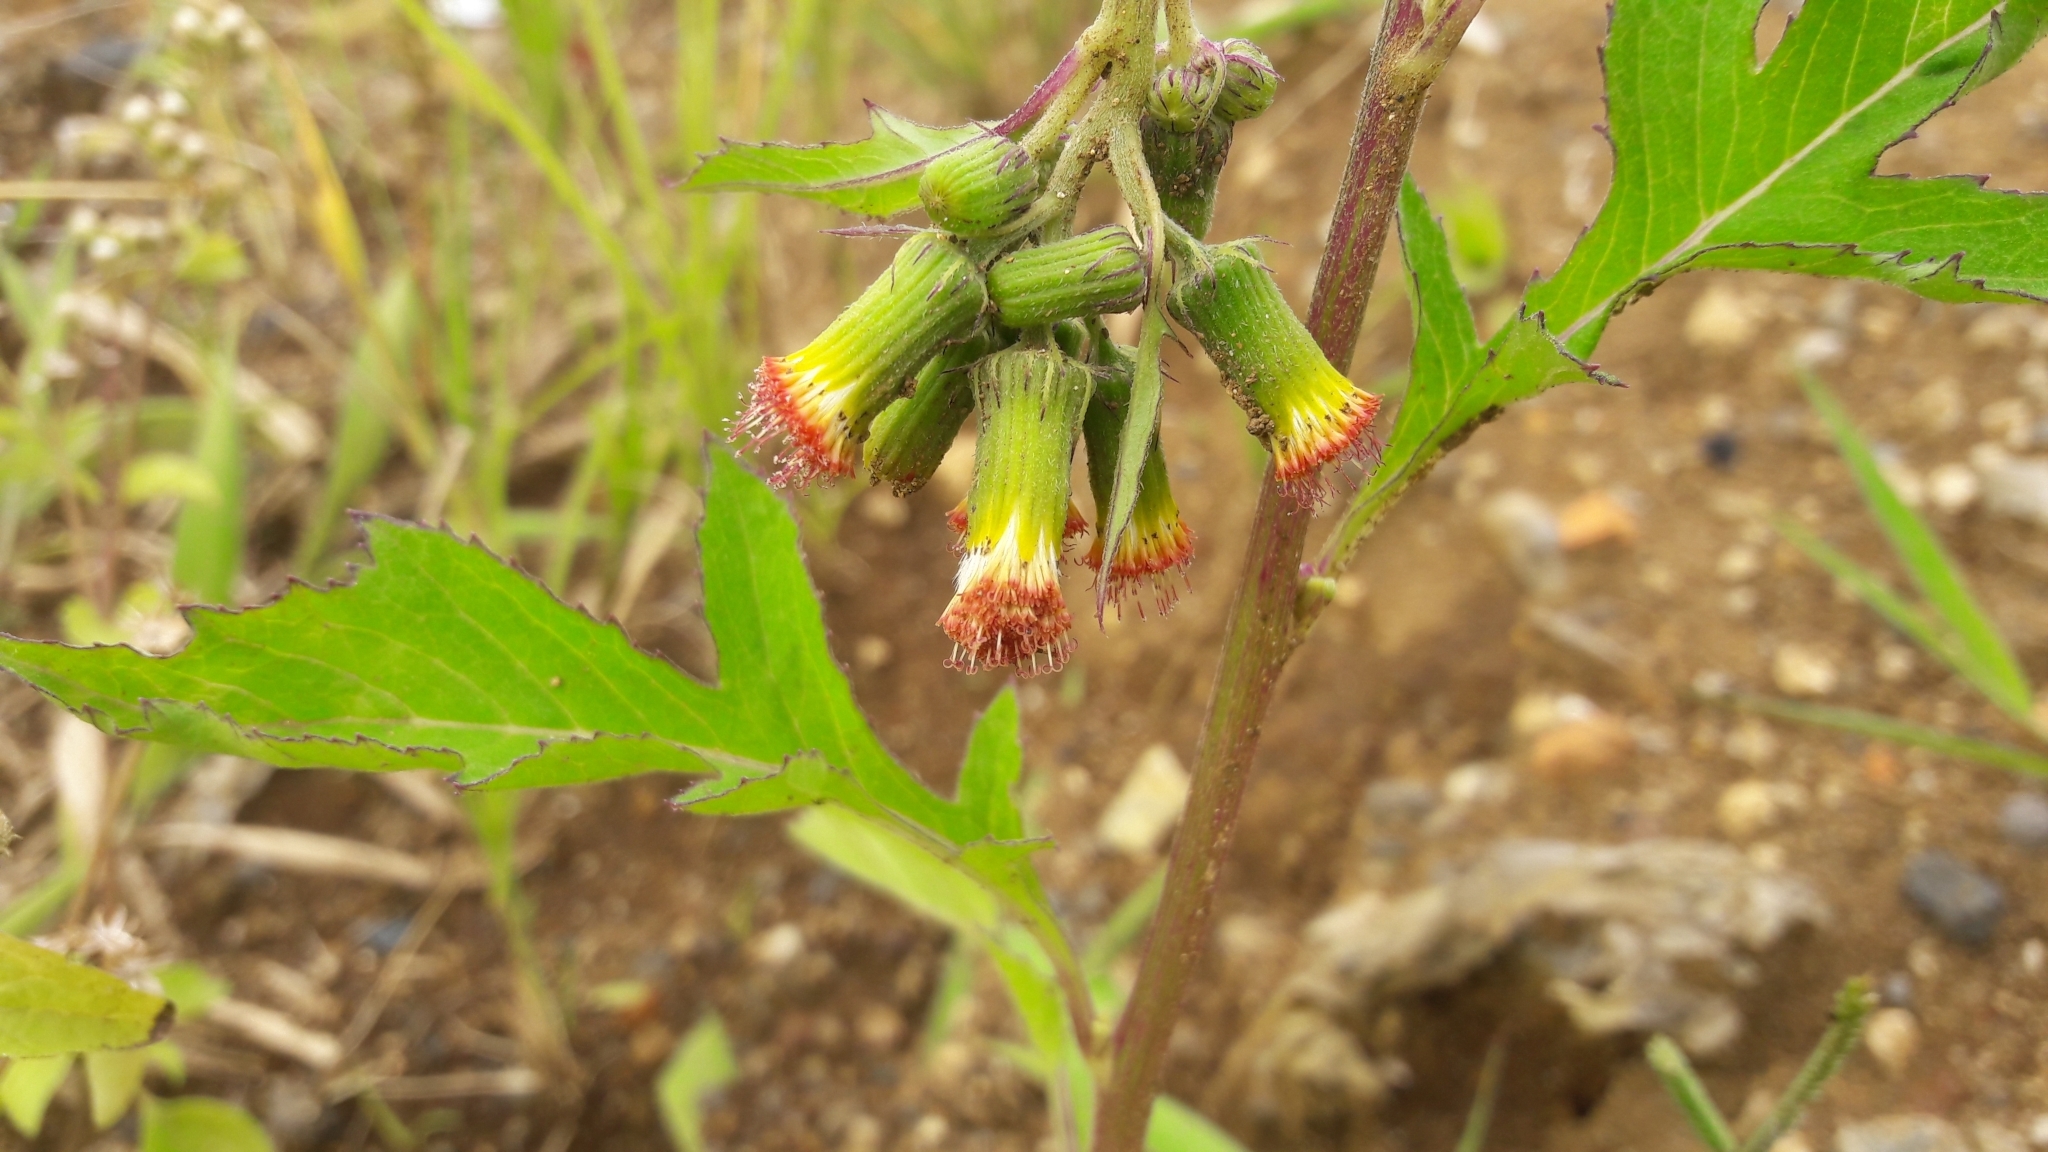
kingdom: Plantae
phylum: Tracheophyta
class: Magnoliopsida
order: Asterales
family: Asteraceae
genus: Crassocephalum
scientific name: Crassocephalum crepidioides
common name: Redflower ragleaf
